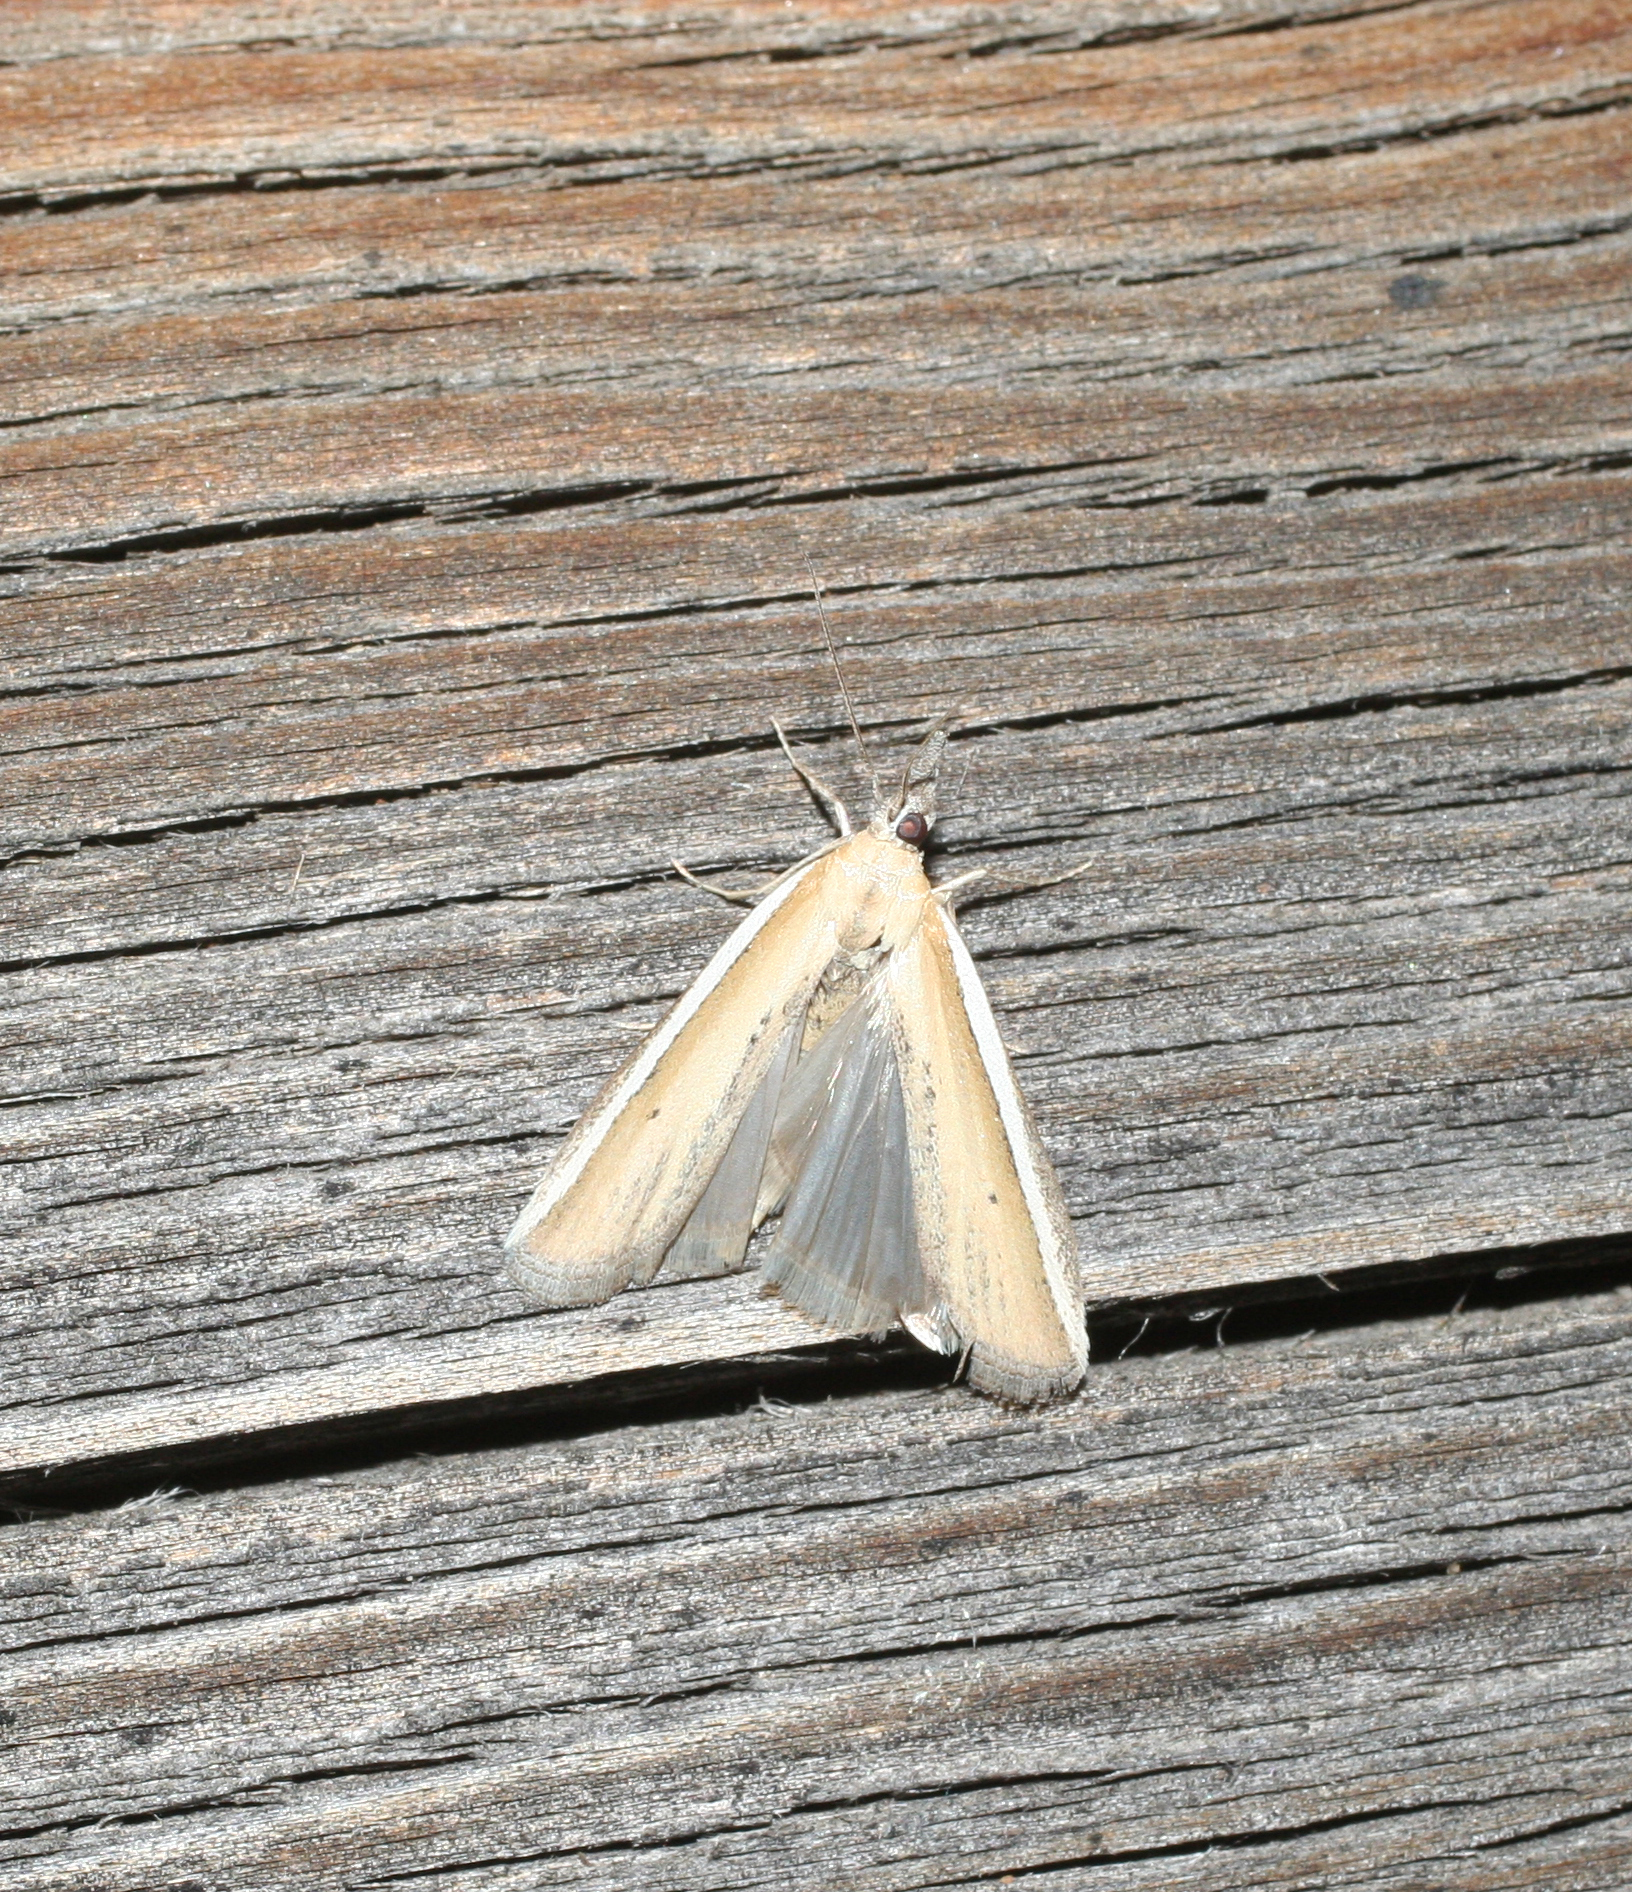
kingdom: Animalia
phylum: Arthropoda
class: Insecta
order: Lepidoptera
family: Pyralidae
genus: Pima
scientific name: Pima boisduvaliella
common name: Silver-edged knot-horn
